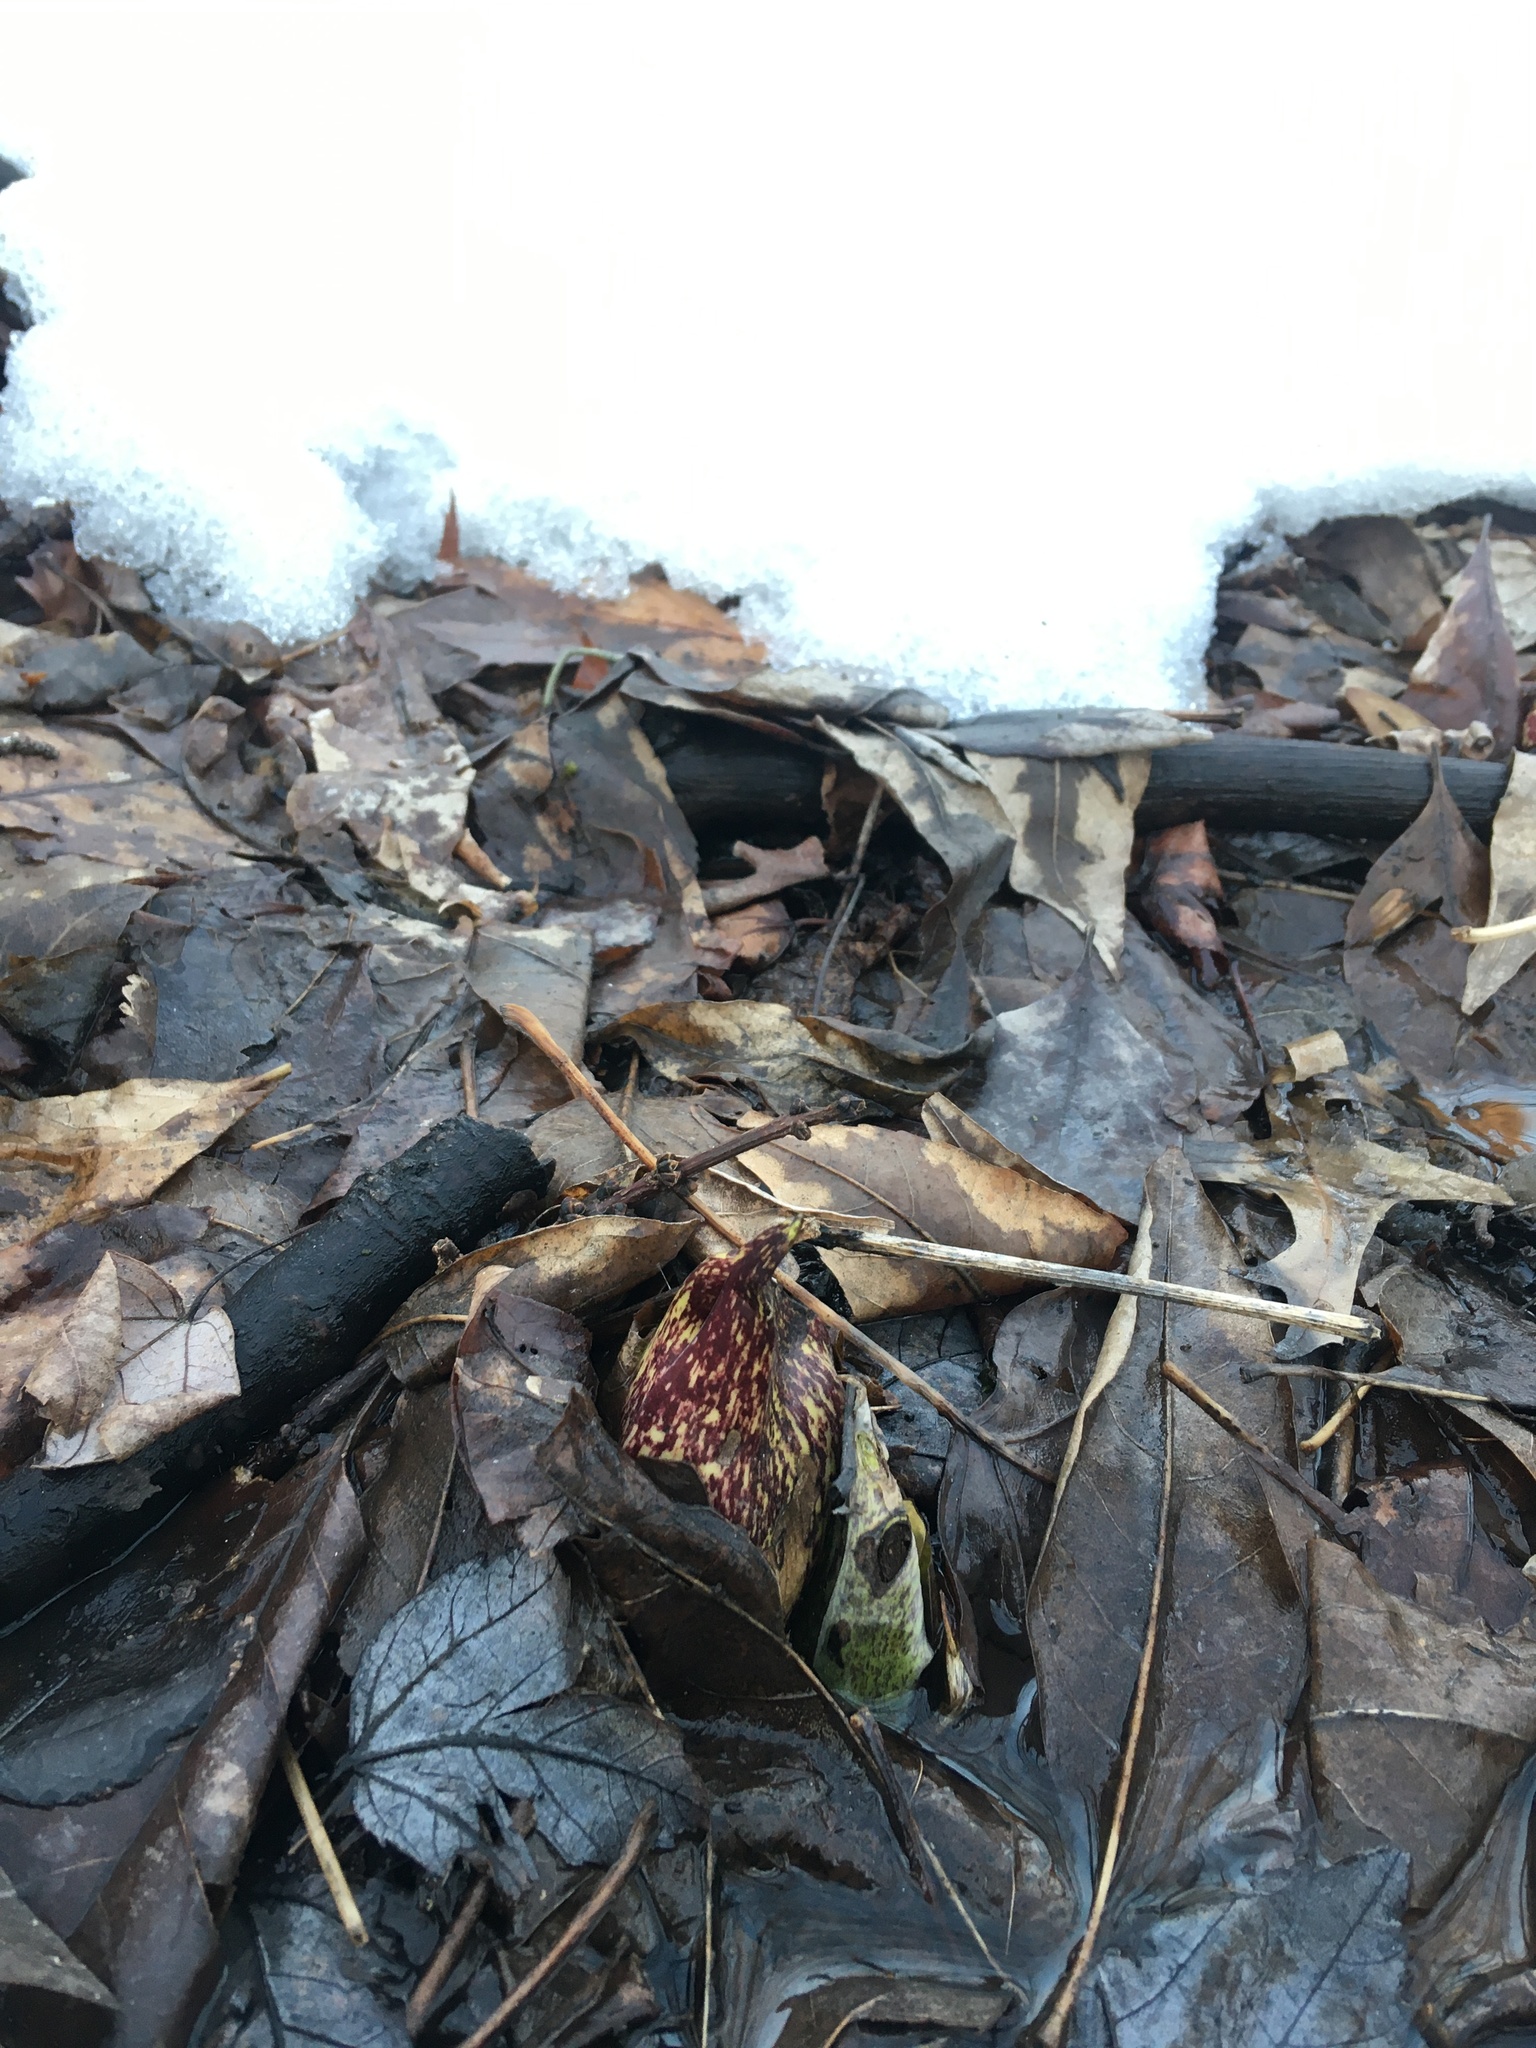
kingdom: Plantae
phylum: Tracheophyta
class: Liliopsida
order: Alismatales
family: Araceae
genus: Symplocarpus
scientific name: Symplocarpus foetidus
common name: Eastern skunk cabbage
